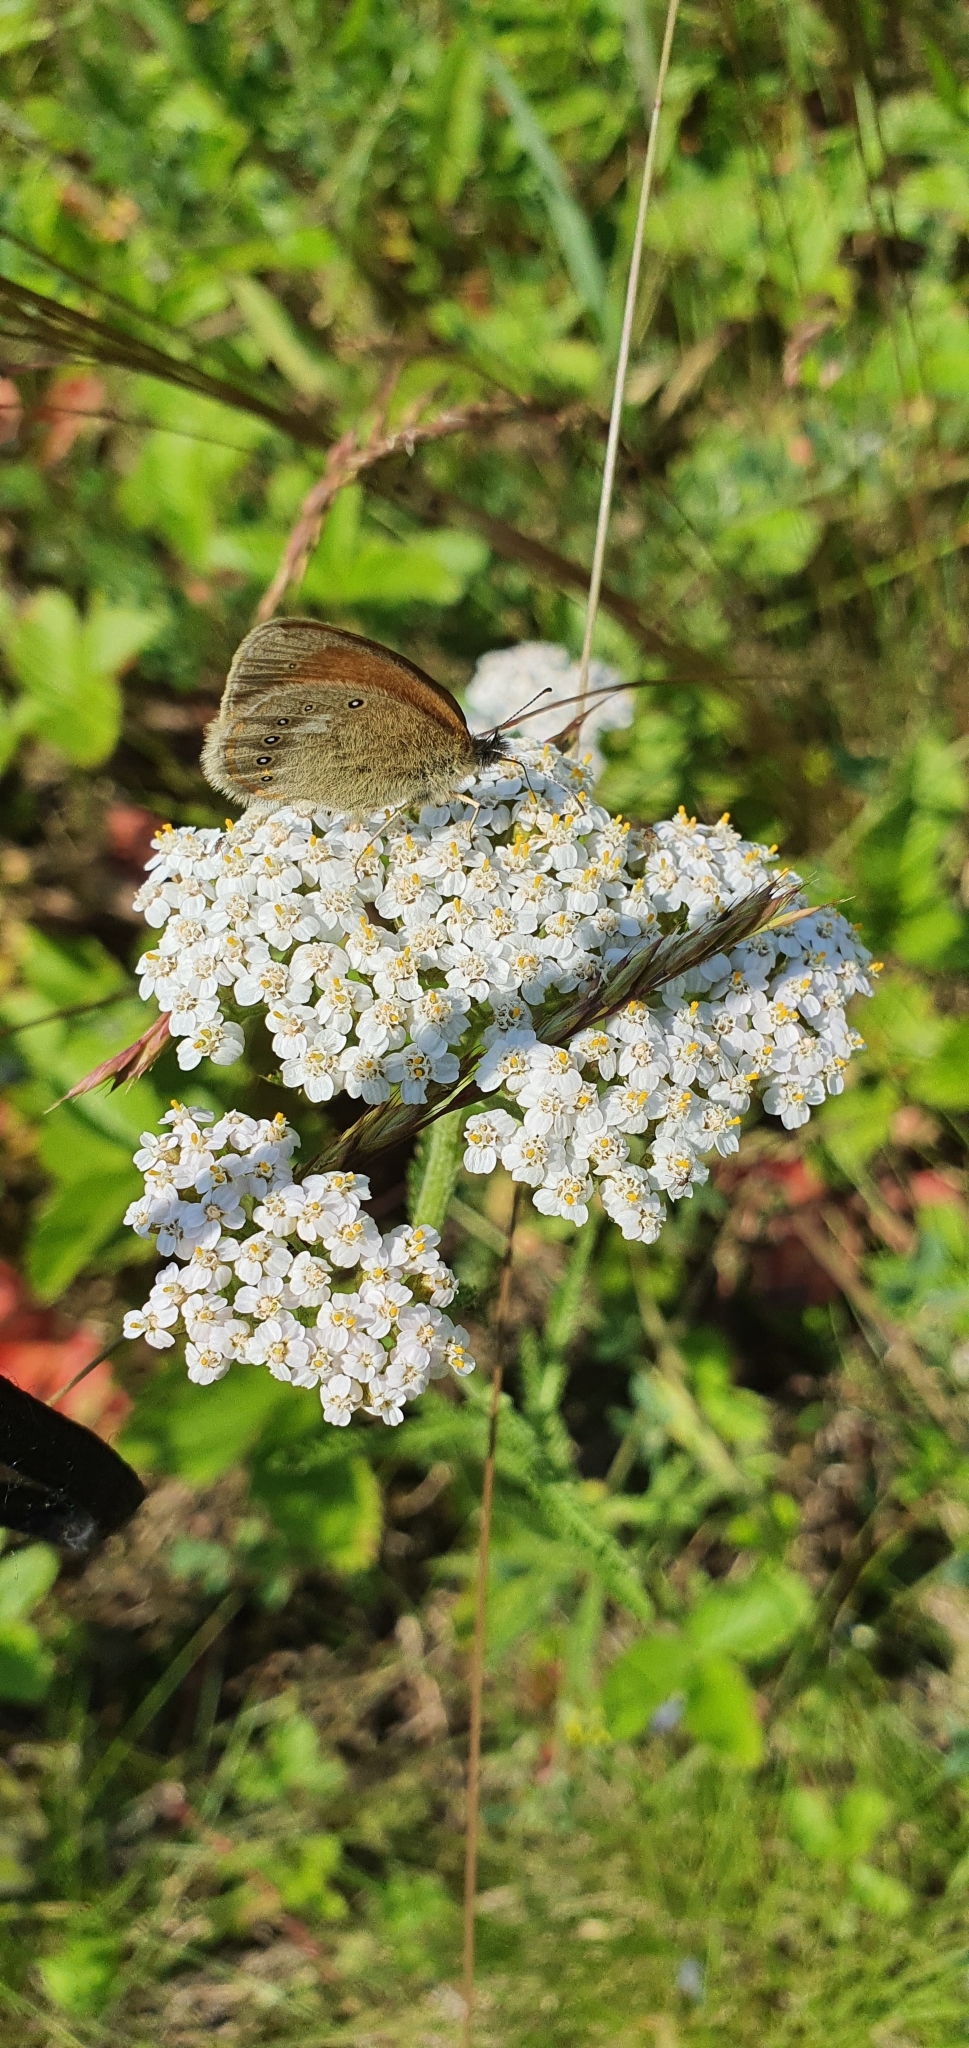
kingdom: Plantae
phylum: Tracheophyta
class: Magnoliopsida
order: Asterales
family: Asteraceae
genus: Achillea
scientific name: Achillea millefolium
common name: Yarrow
